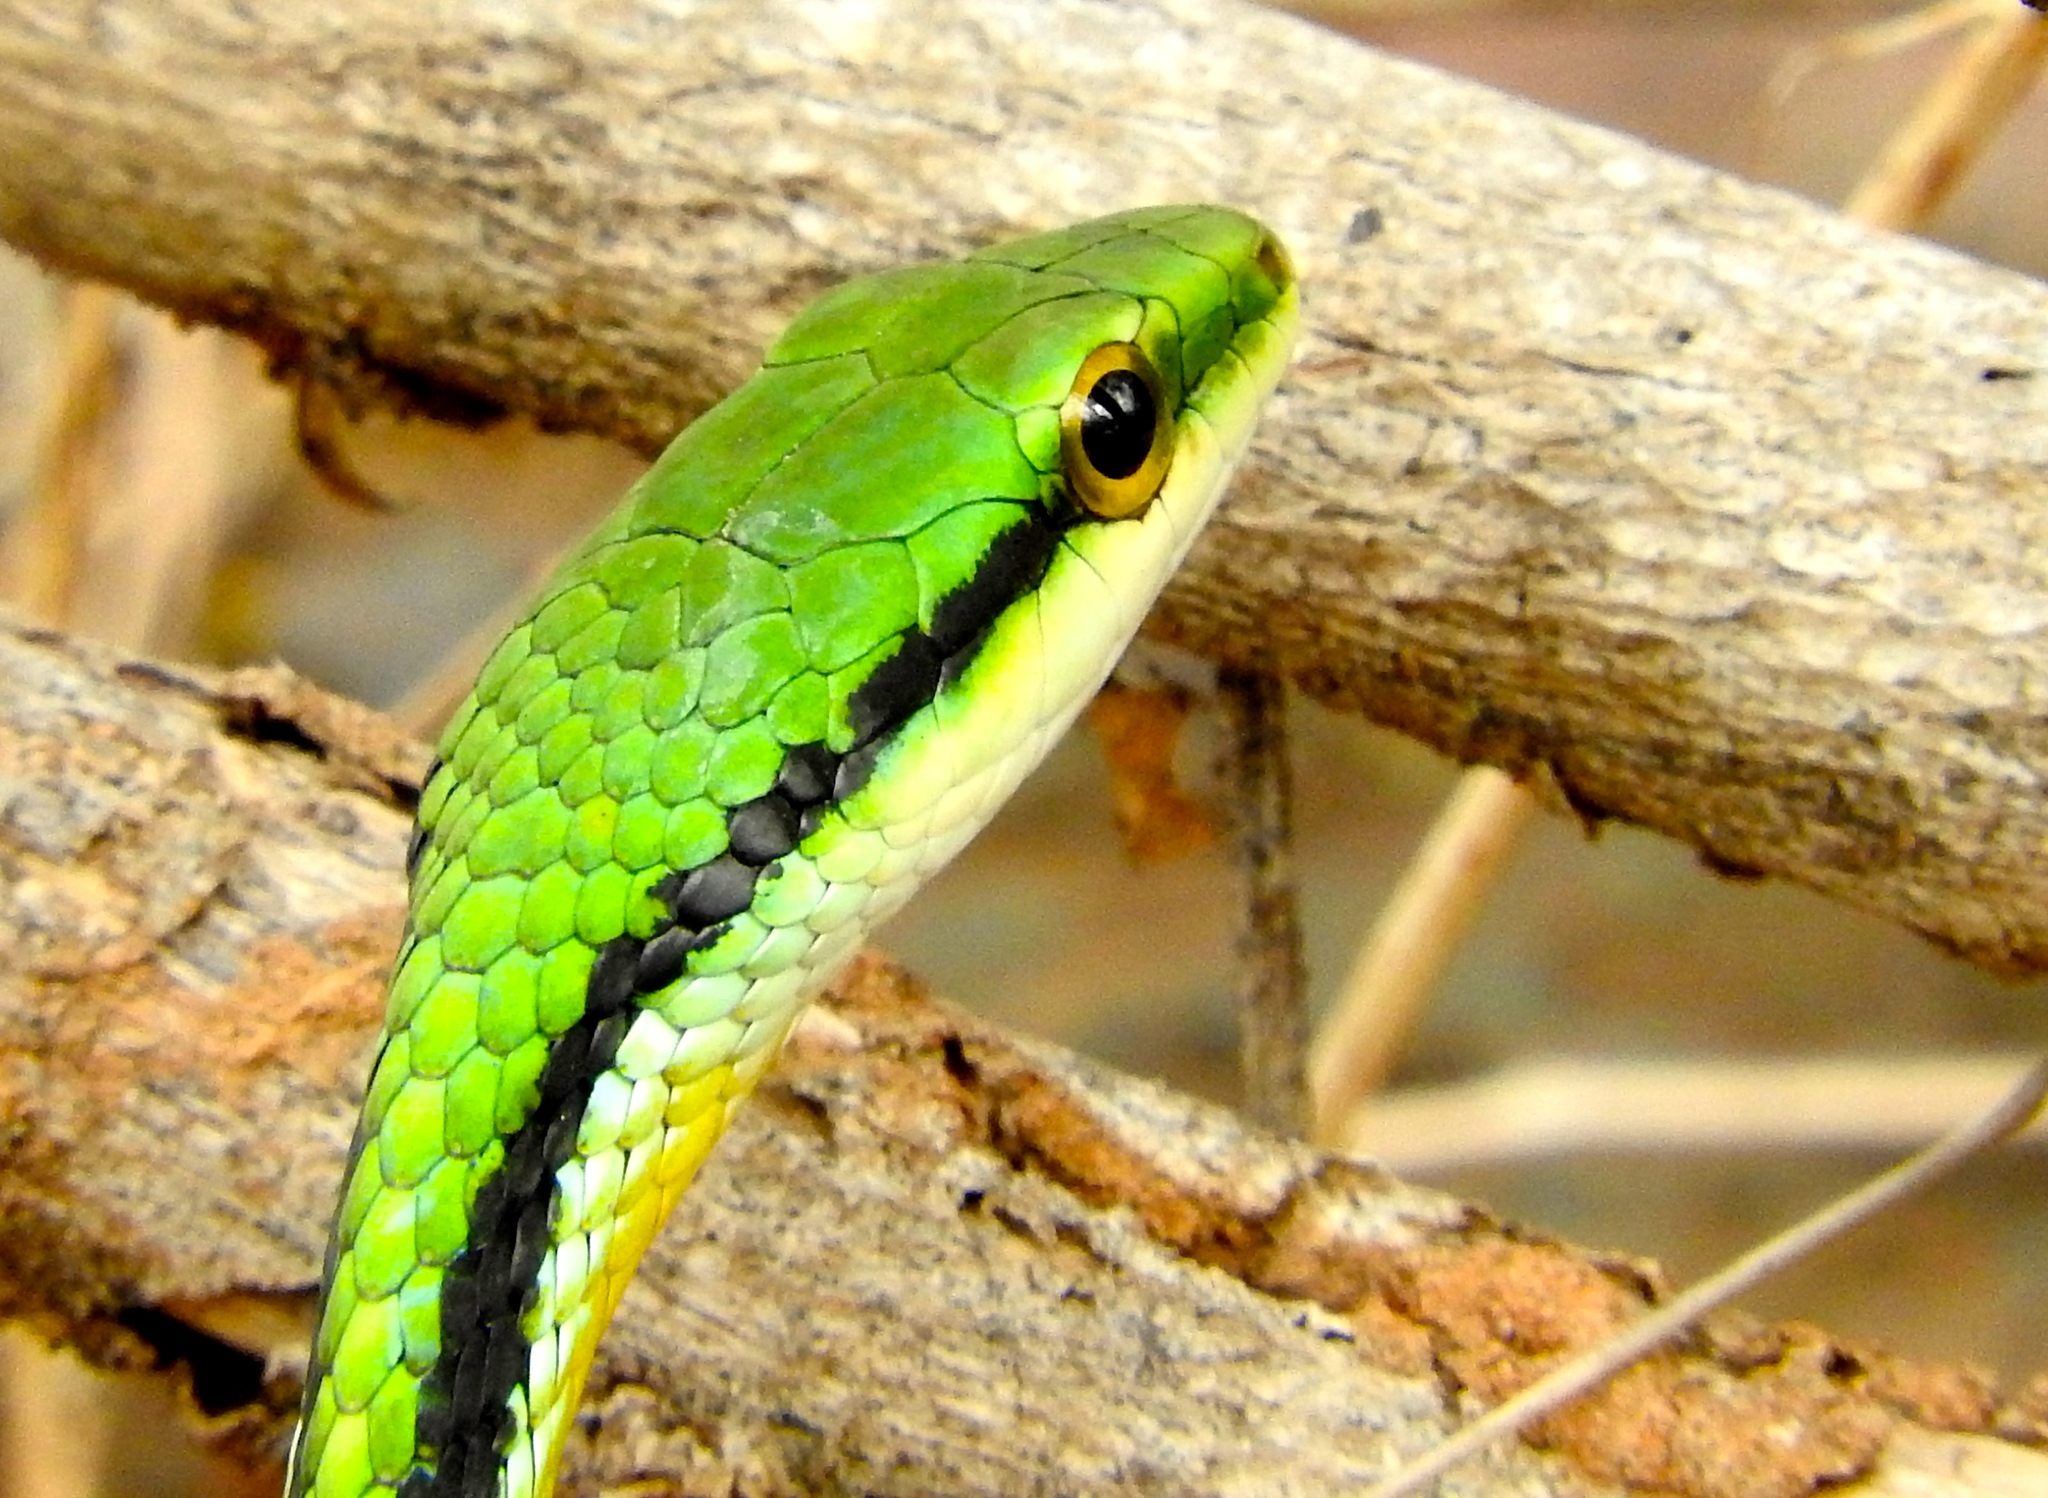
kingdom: Animalia
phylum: Chordata
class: Squamata
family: Colubridae
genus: Leptophis
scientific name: Leptophis diplotropis
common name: Pacific coast parrot snake
